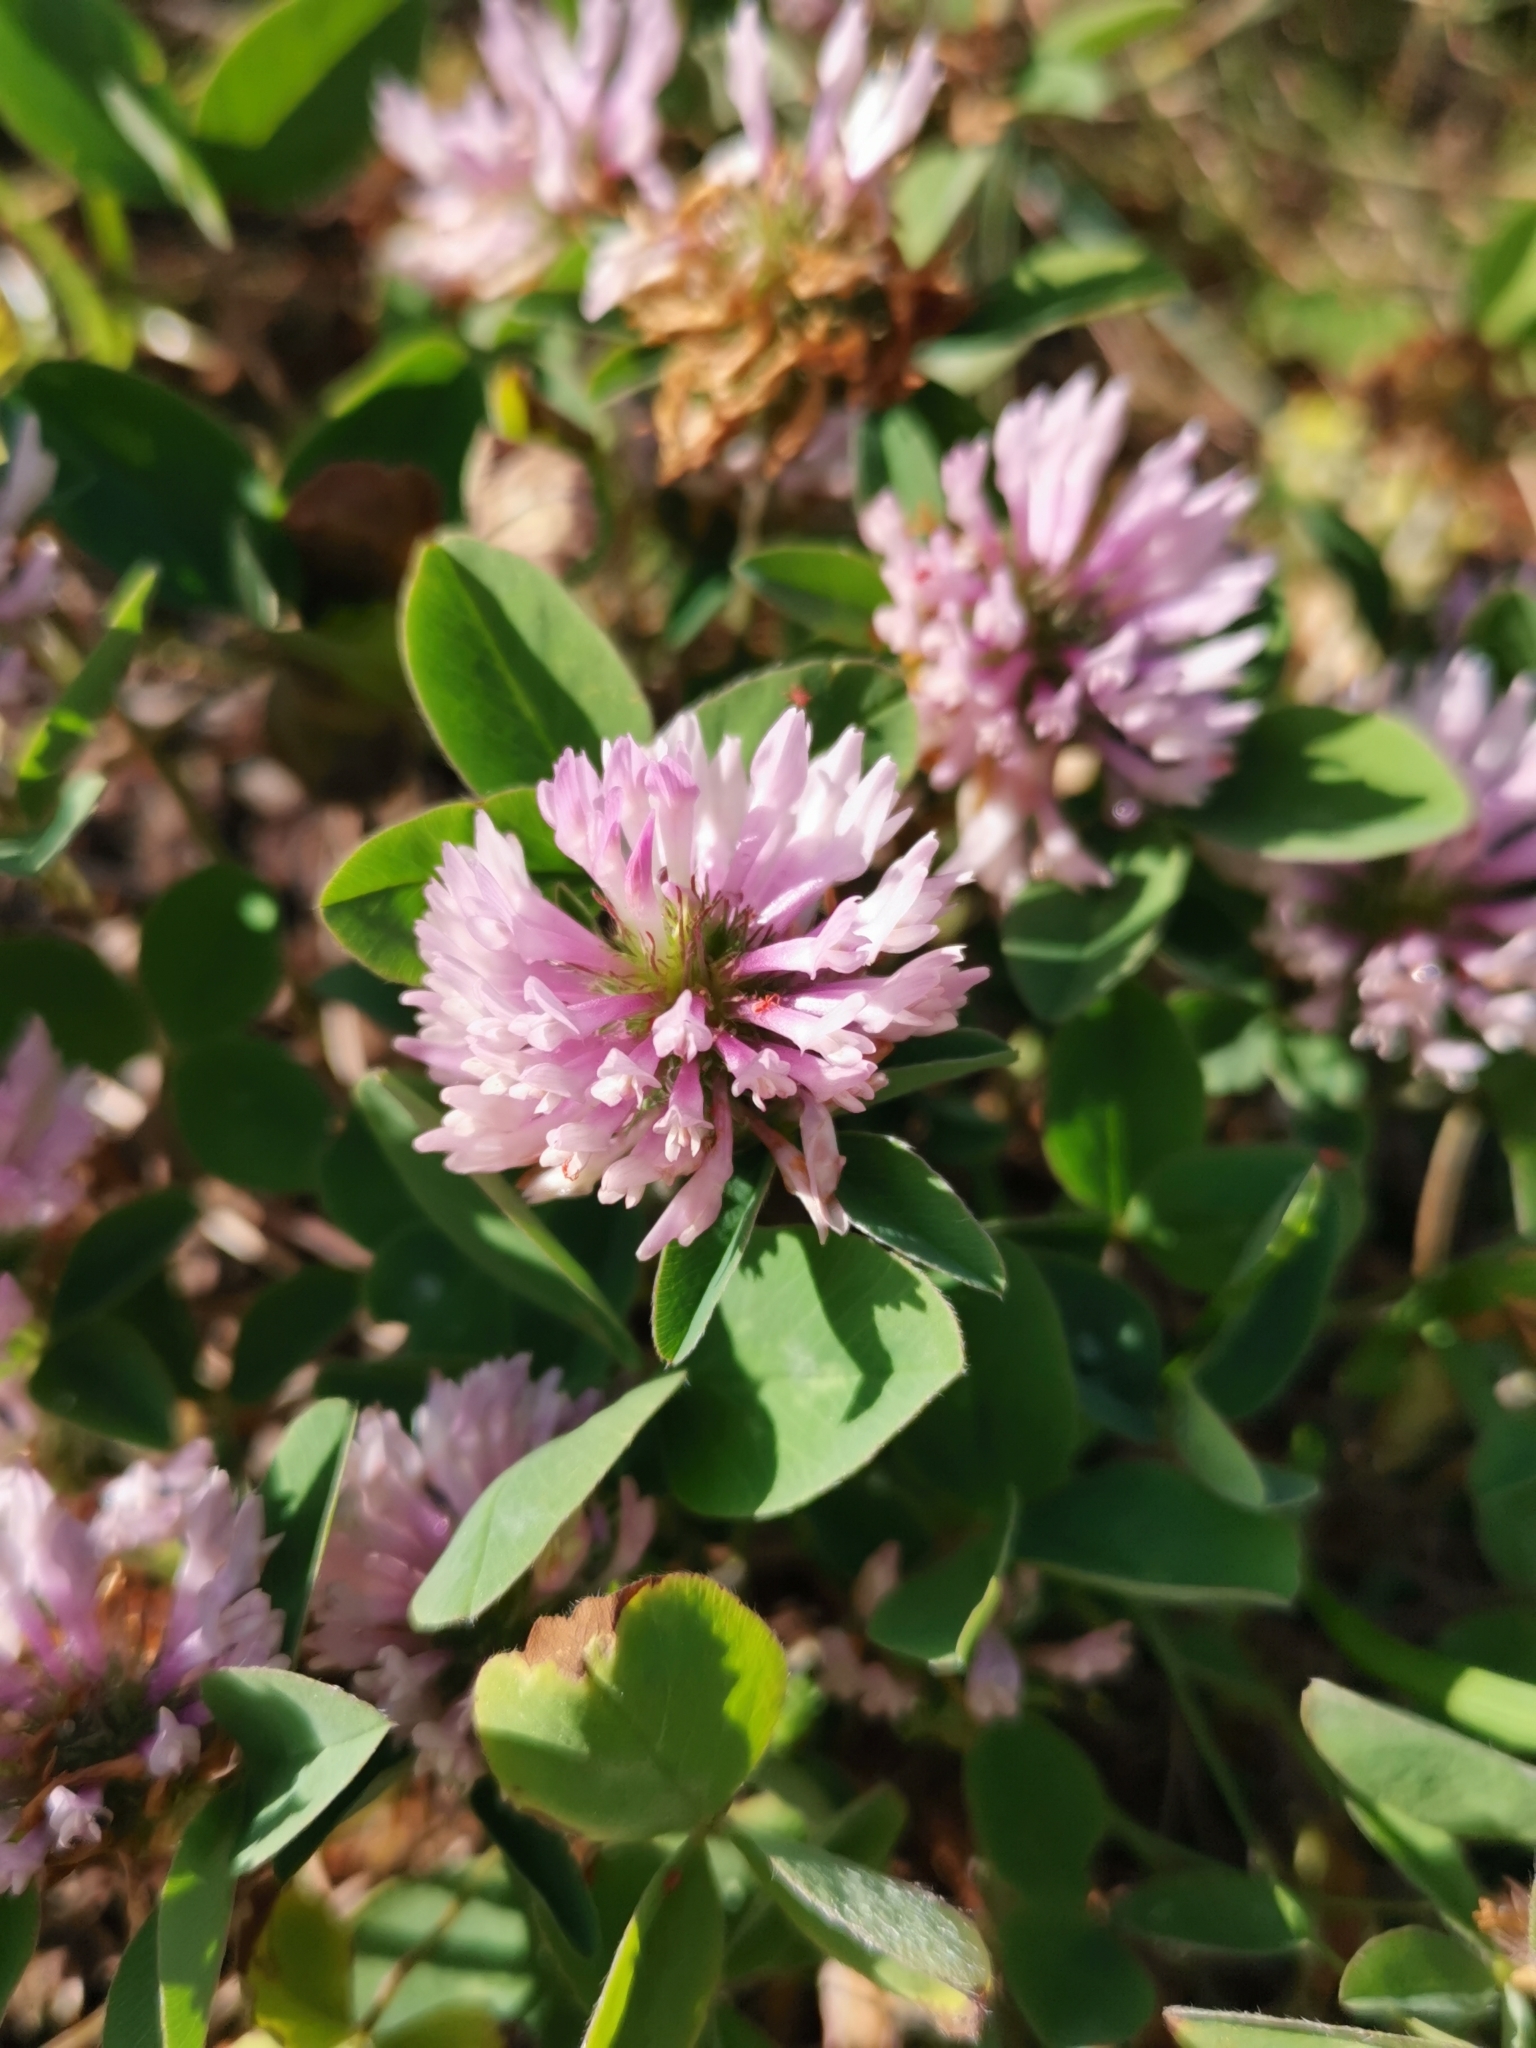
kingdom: Plantae
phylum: Tracheophyta
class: Magnoliopsida
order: Fabales
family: Fabaceae
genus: Trifolium
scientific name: Trifolium pratense
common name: Red clover
